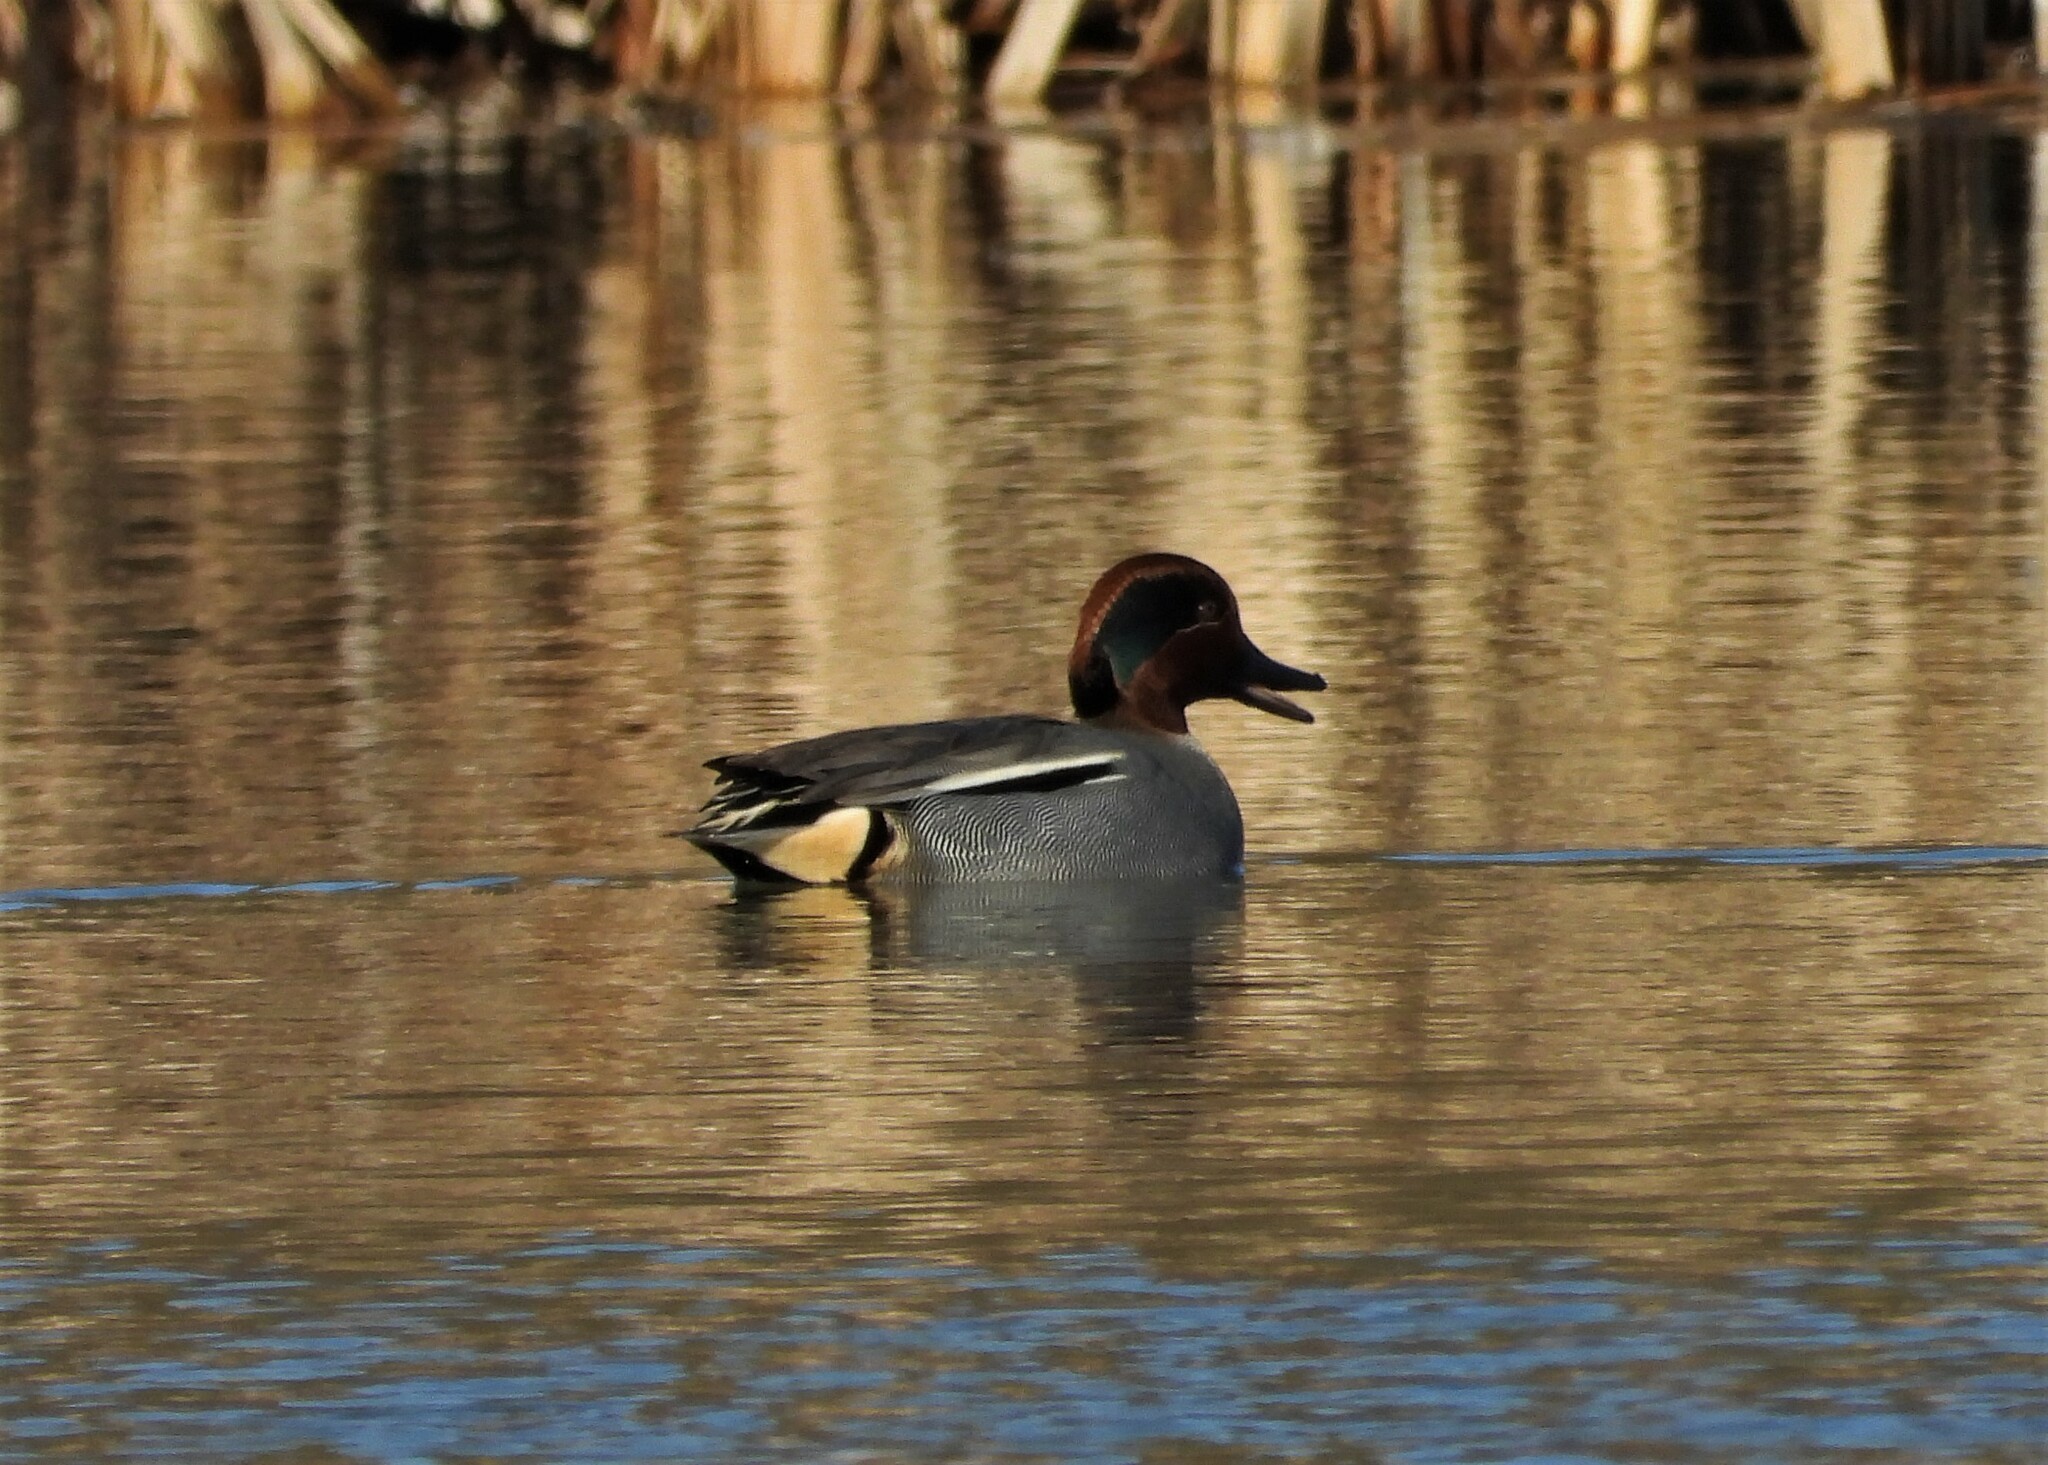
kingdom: Animalia
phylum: Chordata
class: Aves
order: Anseriformes
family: Anatidae
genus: Anas
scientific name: Anas crecca
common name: Eurasian teal
